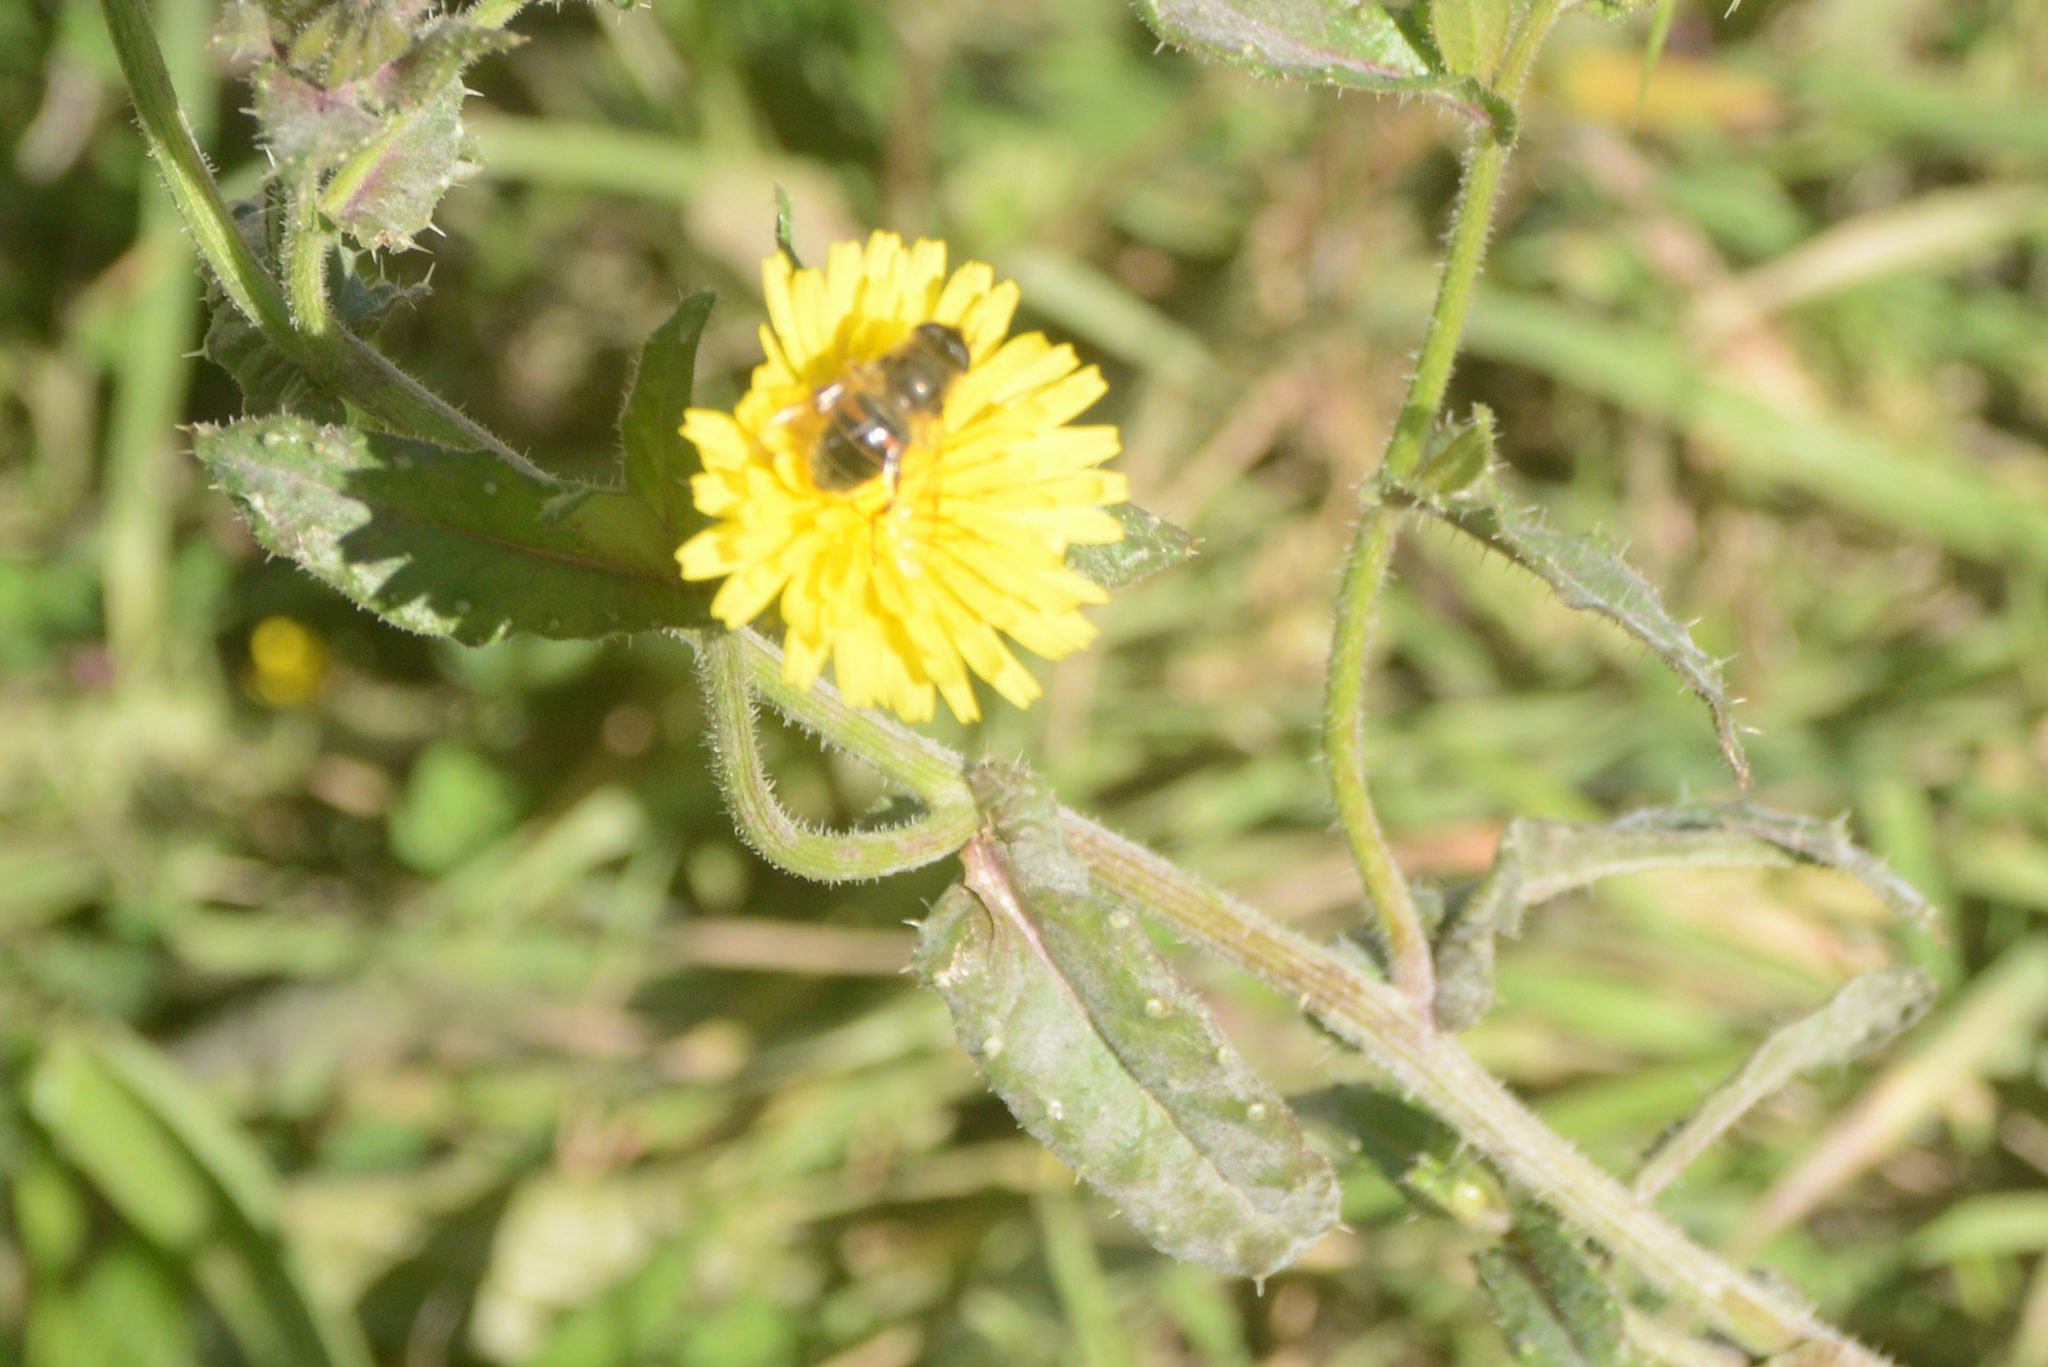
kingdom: Animalia
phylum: Arthropoda
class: Insecta
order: Diptera
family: Syrphidae
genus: Eristalis
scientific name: Eristalis tenax
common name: Drone fly
